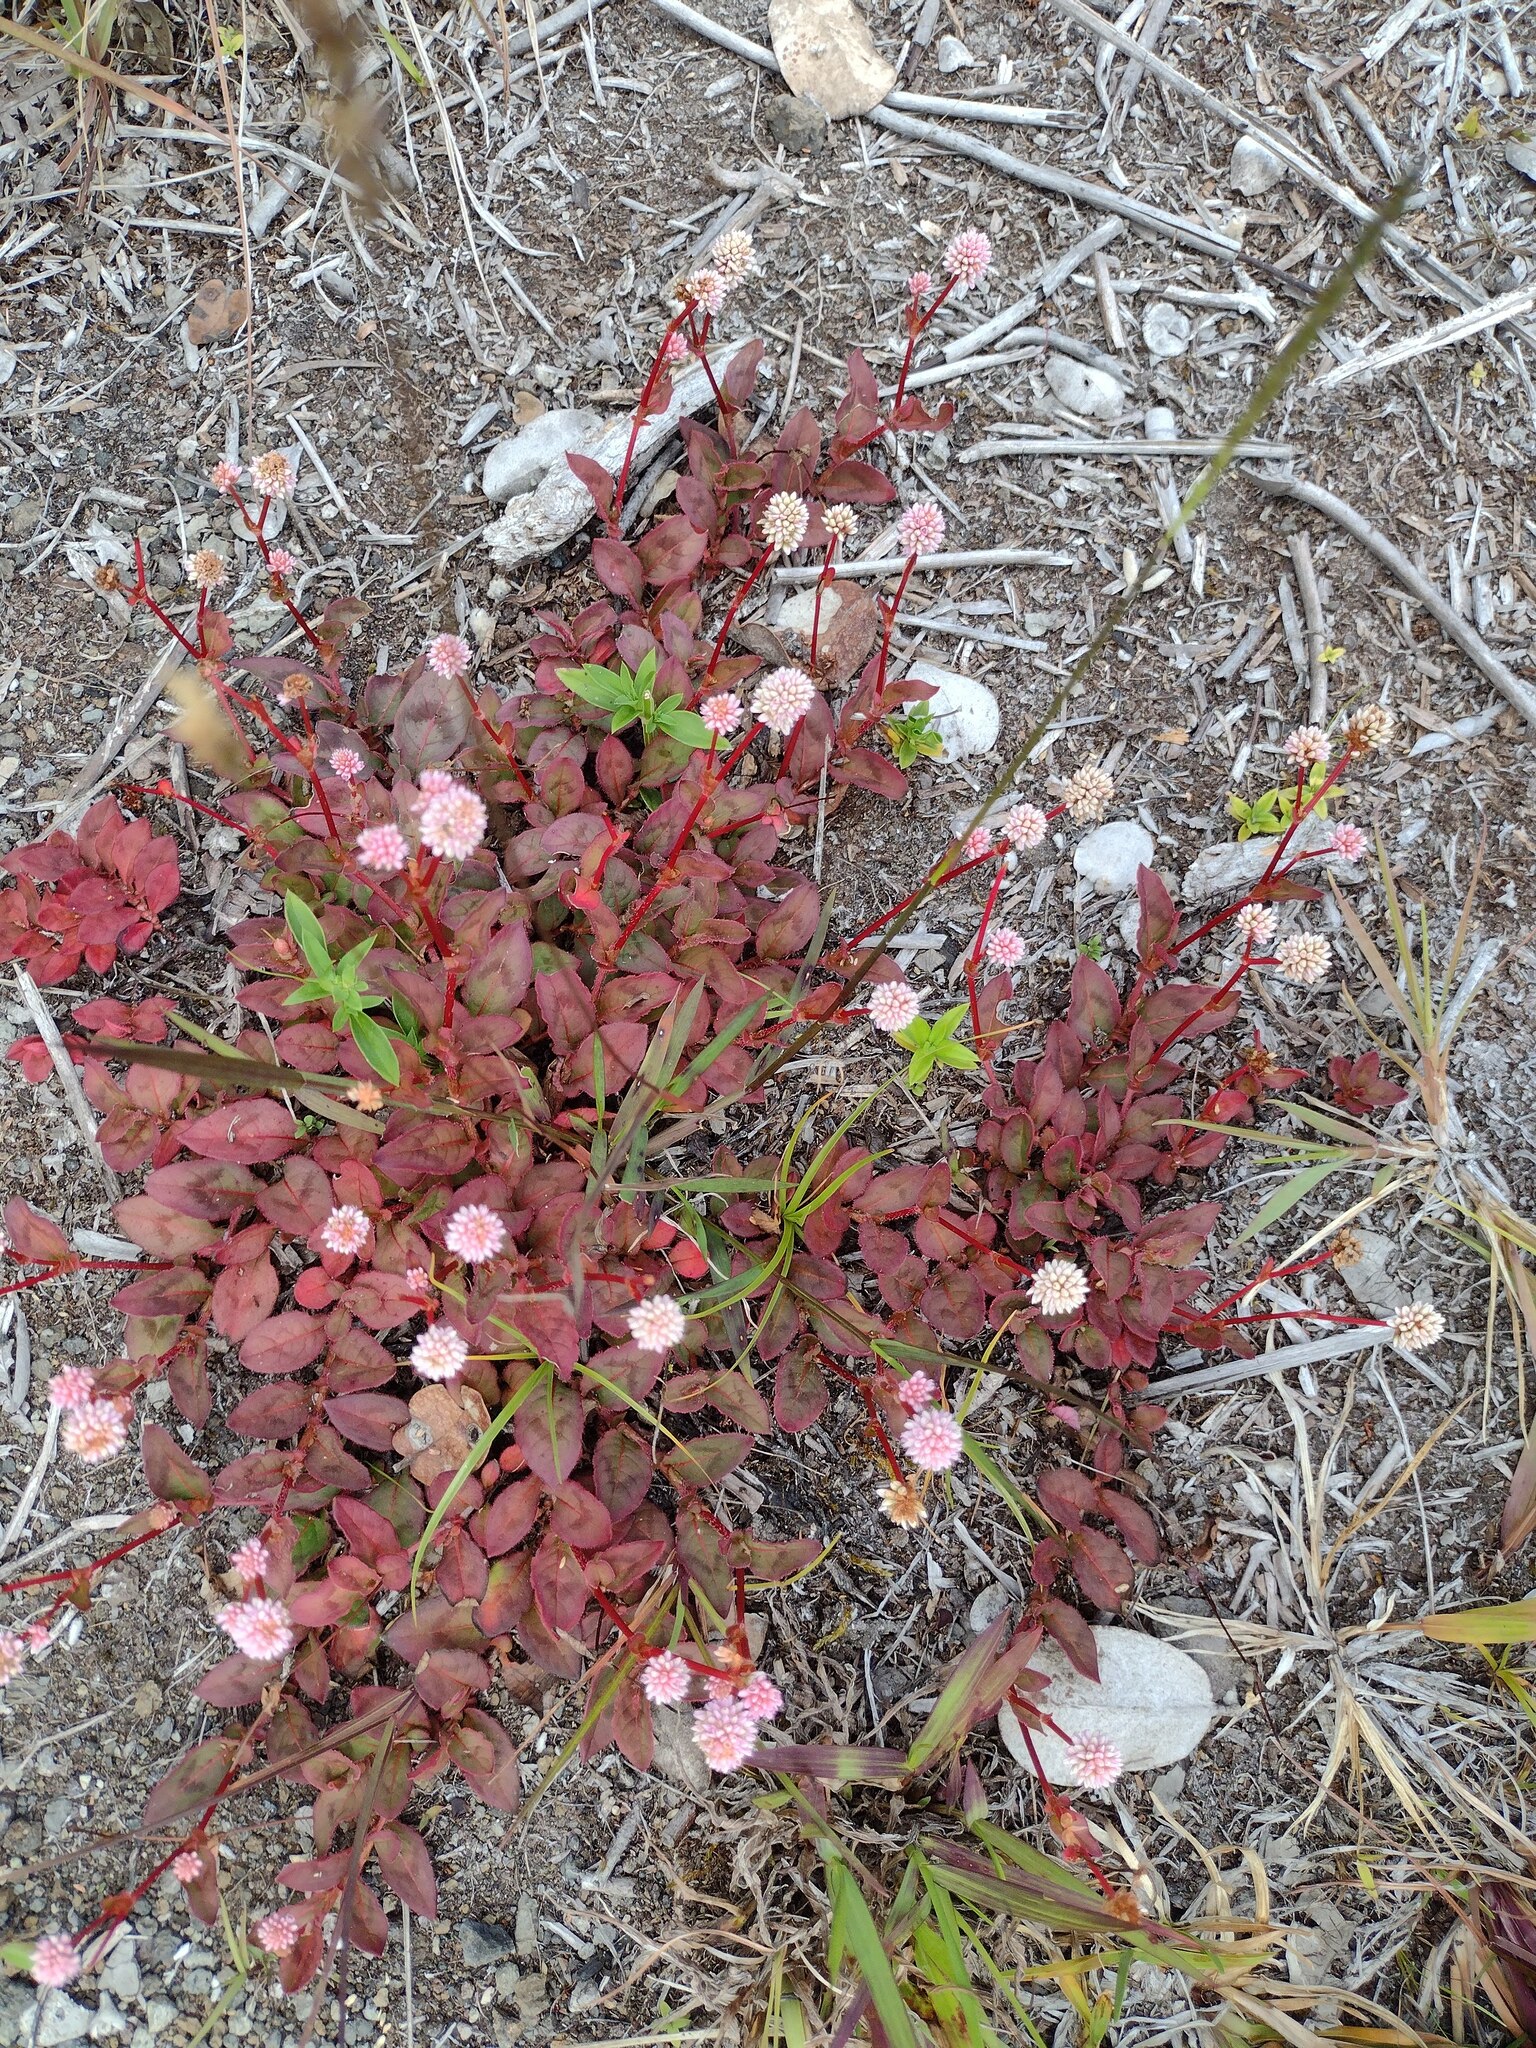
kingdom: Plantae
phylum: Tracheophyta
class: Magnoliopsida
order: Caryophyllales
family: Polygonaceae
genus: Persicaria
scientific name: Persicaria capitata
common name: Pinkhead smartweed
